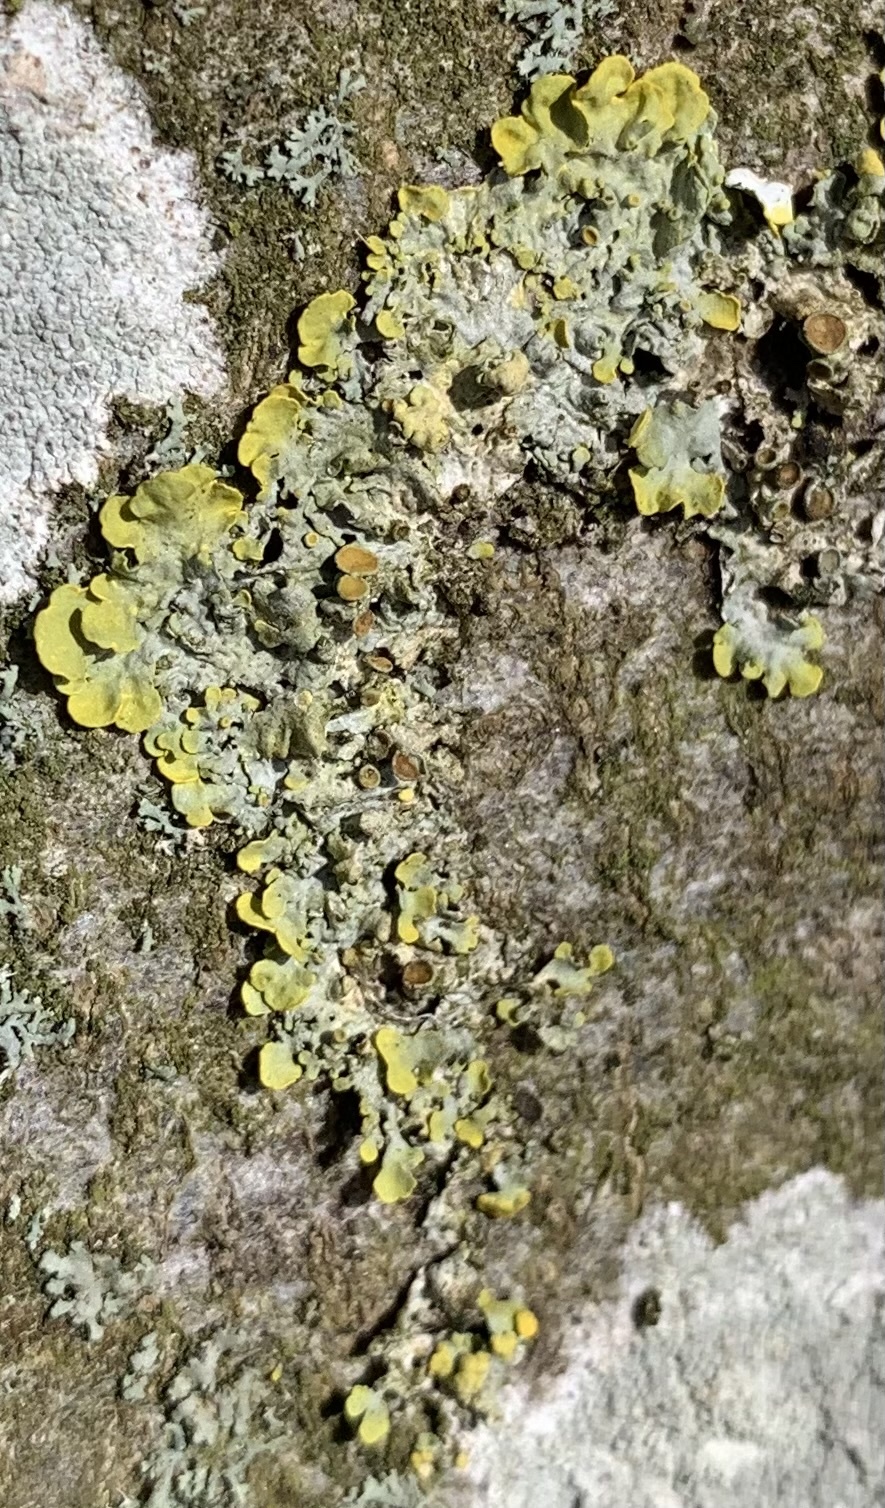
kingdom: Fungi
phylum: Ascomycota
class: Lecanoromycetes
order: Teloschistales
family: Teloschistaceae
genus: Xanthoria
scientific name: Xanthoria parietina
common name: Common orange lichen
